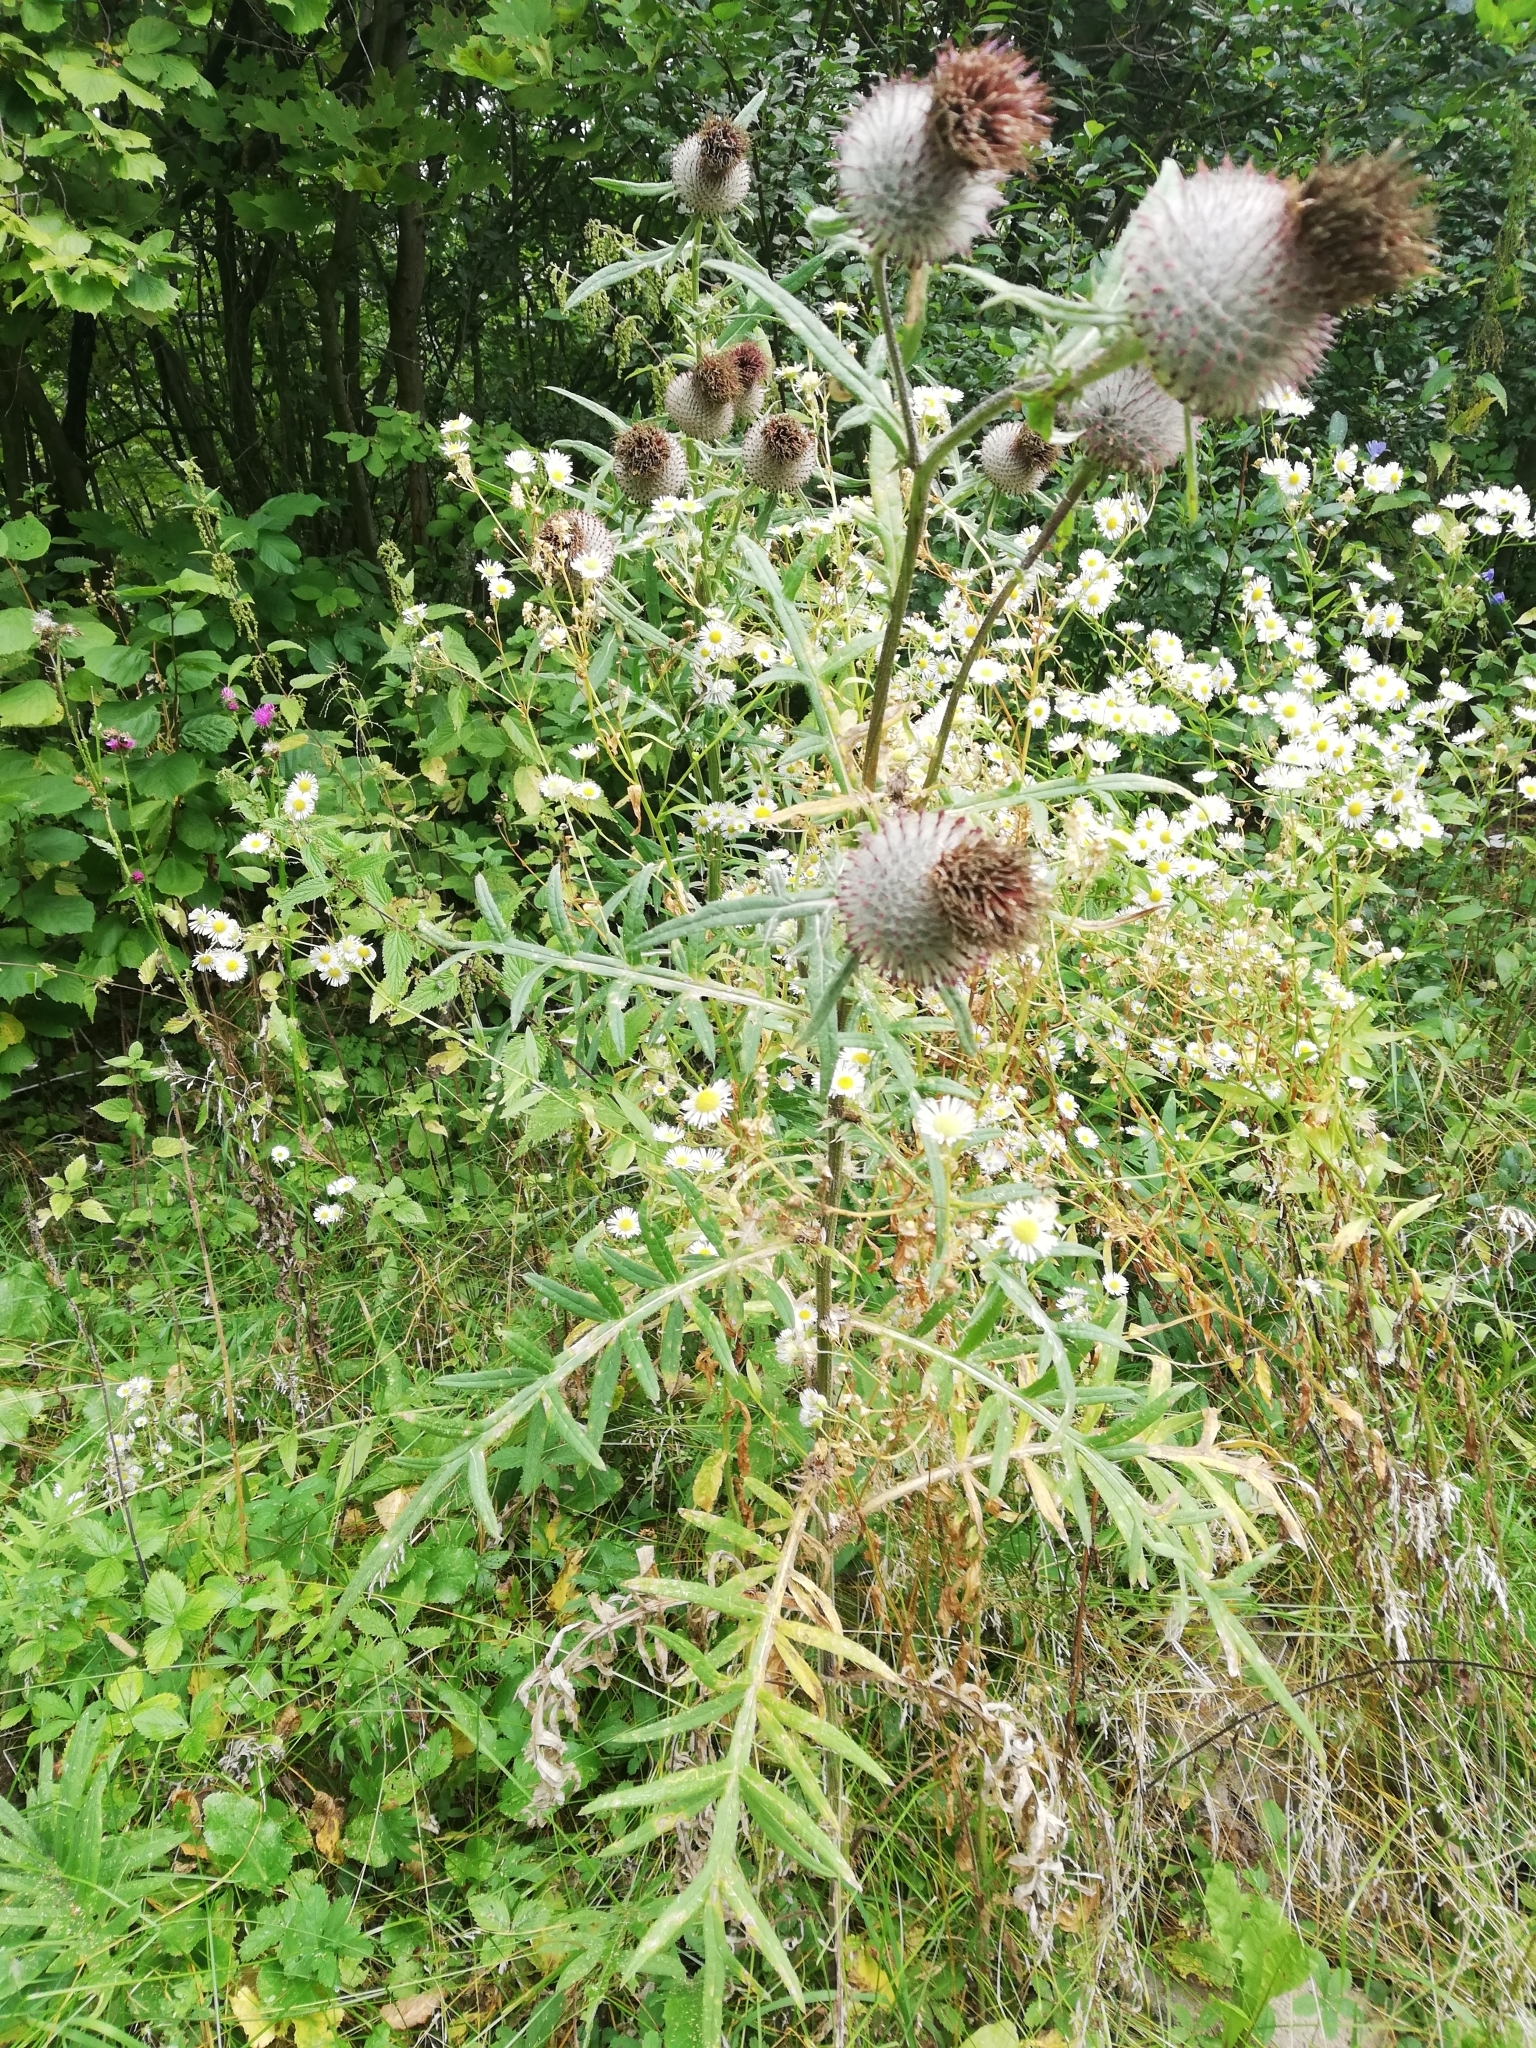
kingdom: Plantae
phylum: Tracheophyta
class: Magnoliopsida
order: Asterales
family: Asteraceae
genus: Lophiolepis
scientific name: Lophiolepis decussata
